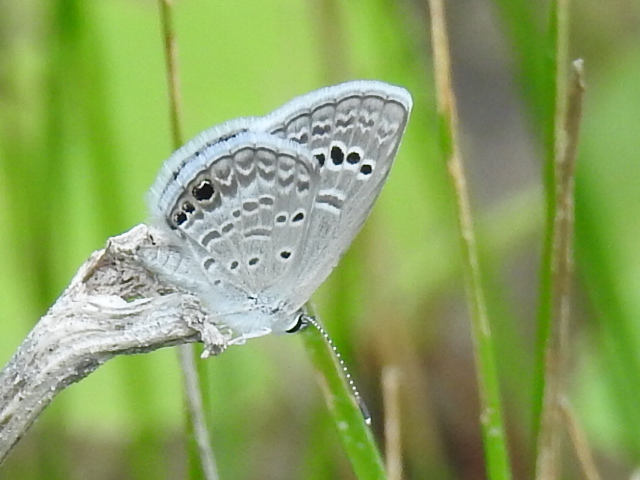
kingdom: Animalia
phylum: Arthropoda
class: Insecta
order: Lepidoptera
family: Lycaenidae
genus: Echinargus
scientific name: Echinargus isola
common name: Reakirt's blue
